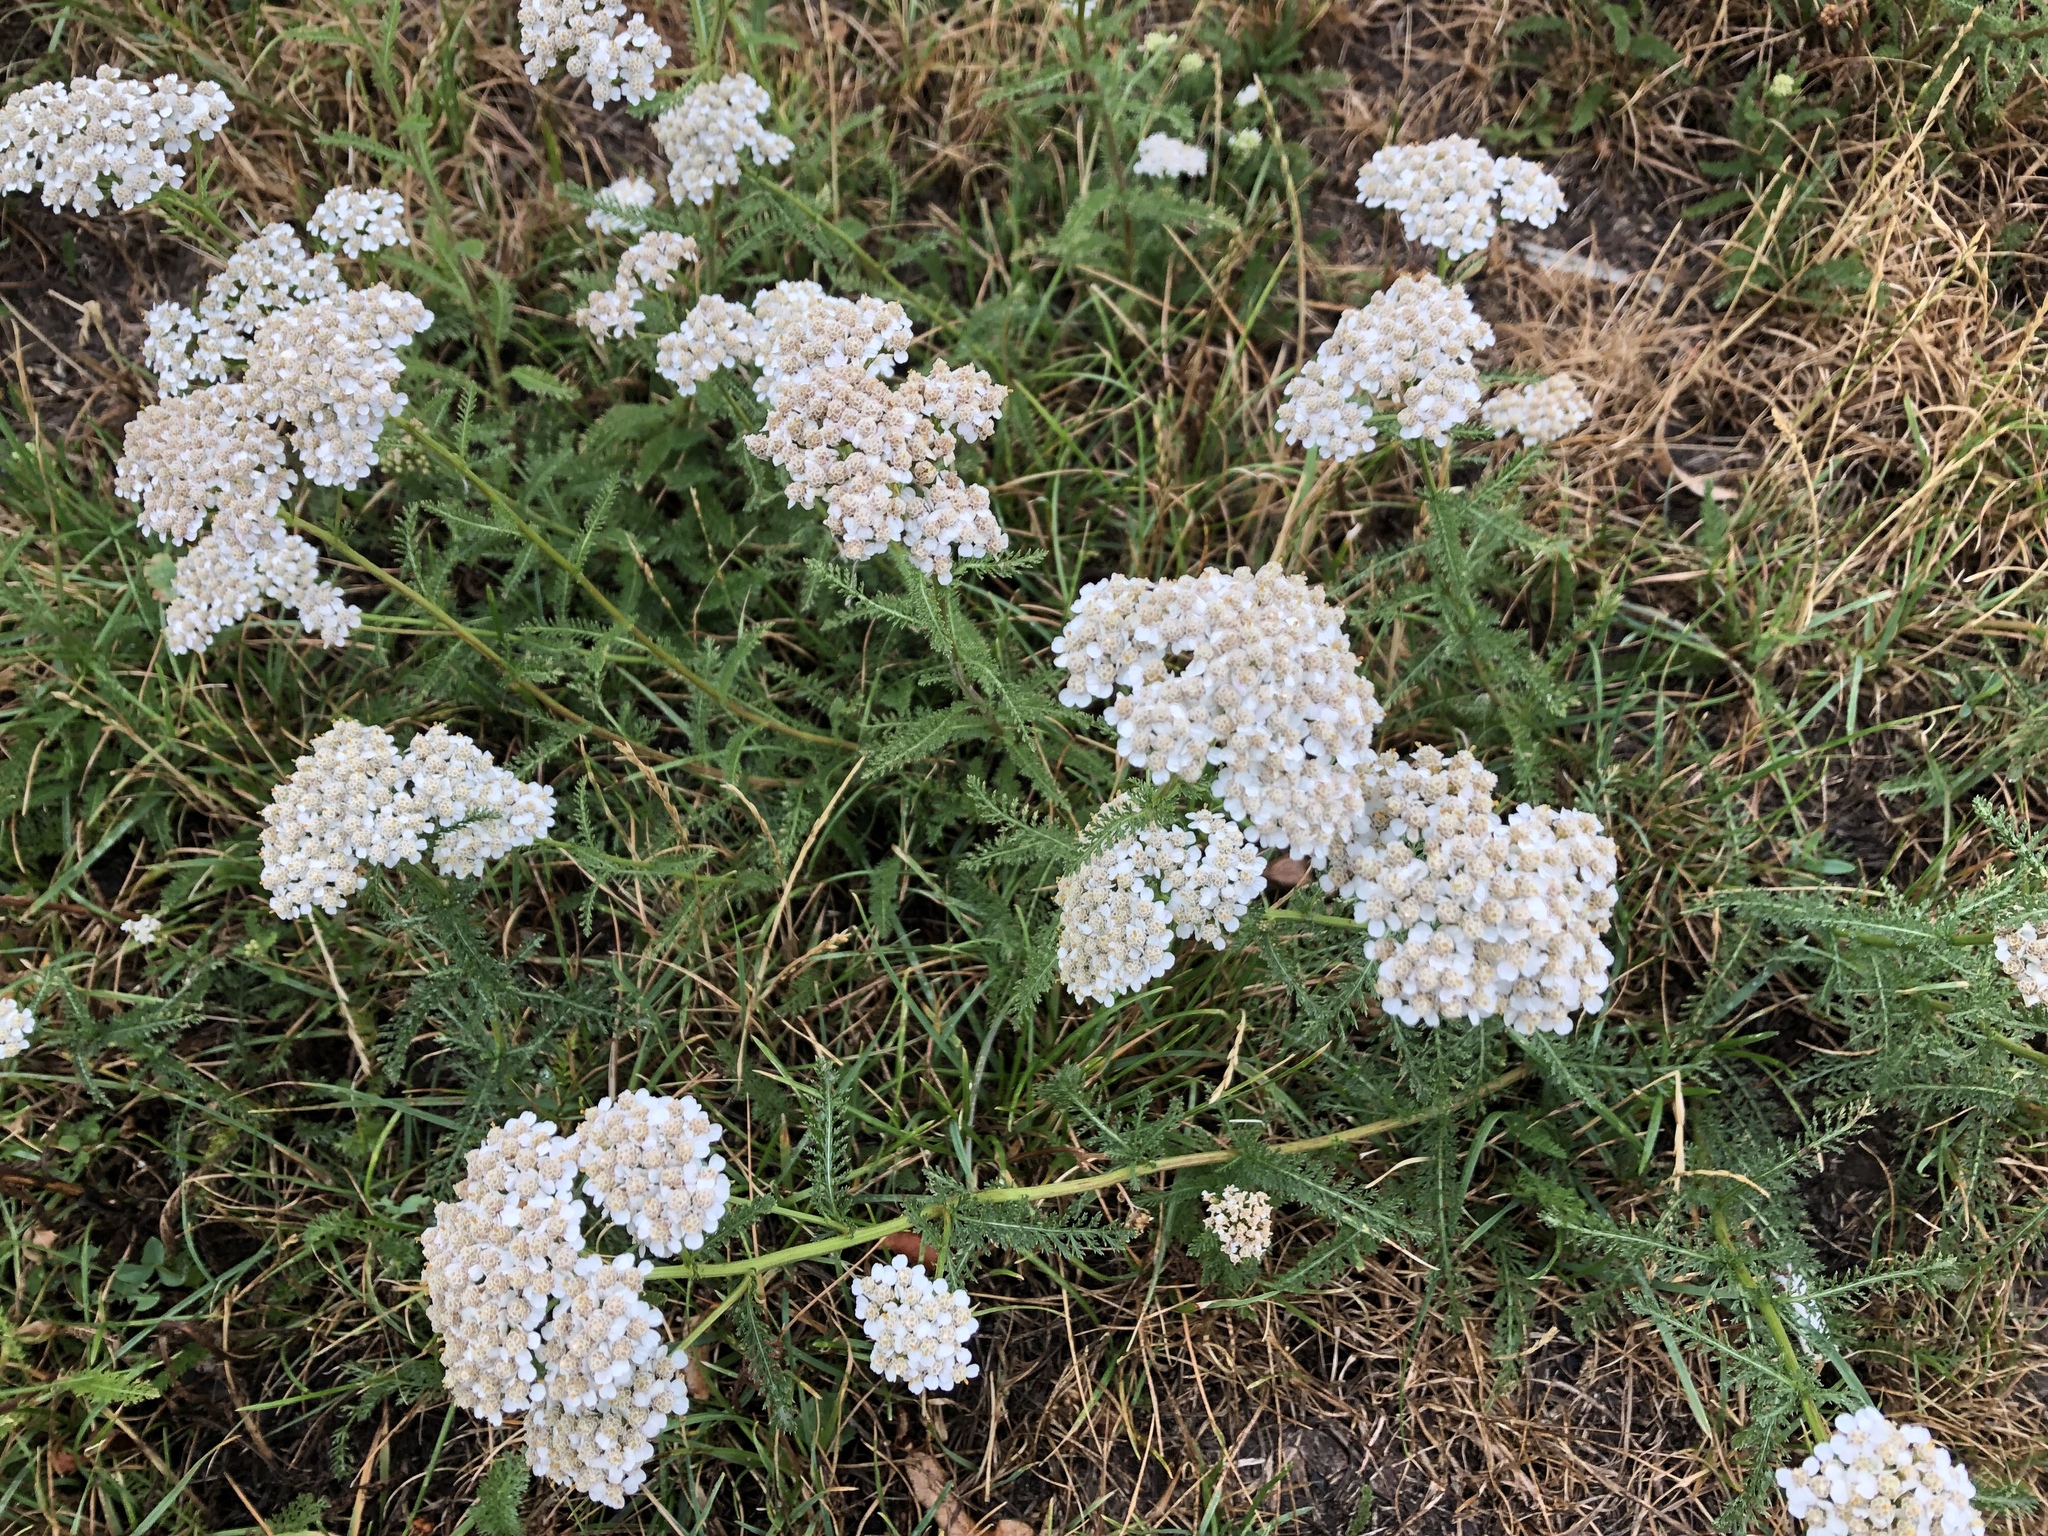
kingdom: Plantae
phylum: Tracheophyta
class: Magnoliopsida
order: Asterales
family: Asteraceae
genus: Achillea
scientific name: Achillea millefolium
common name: Yarrow
